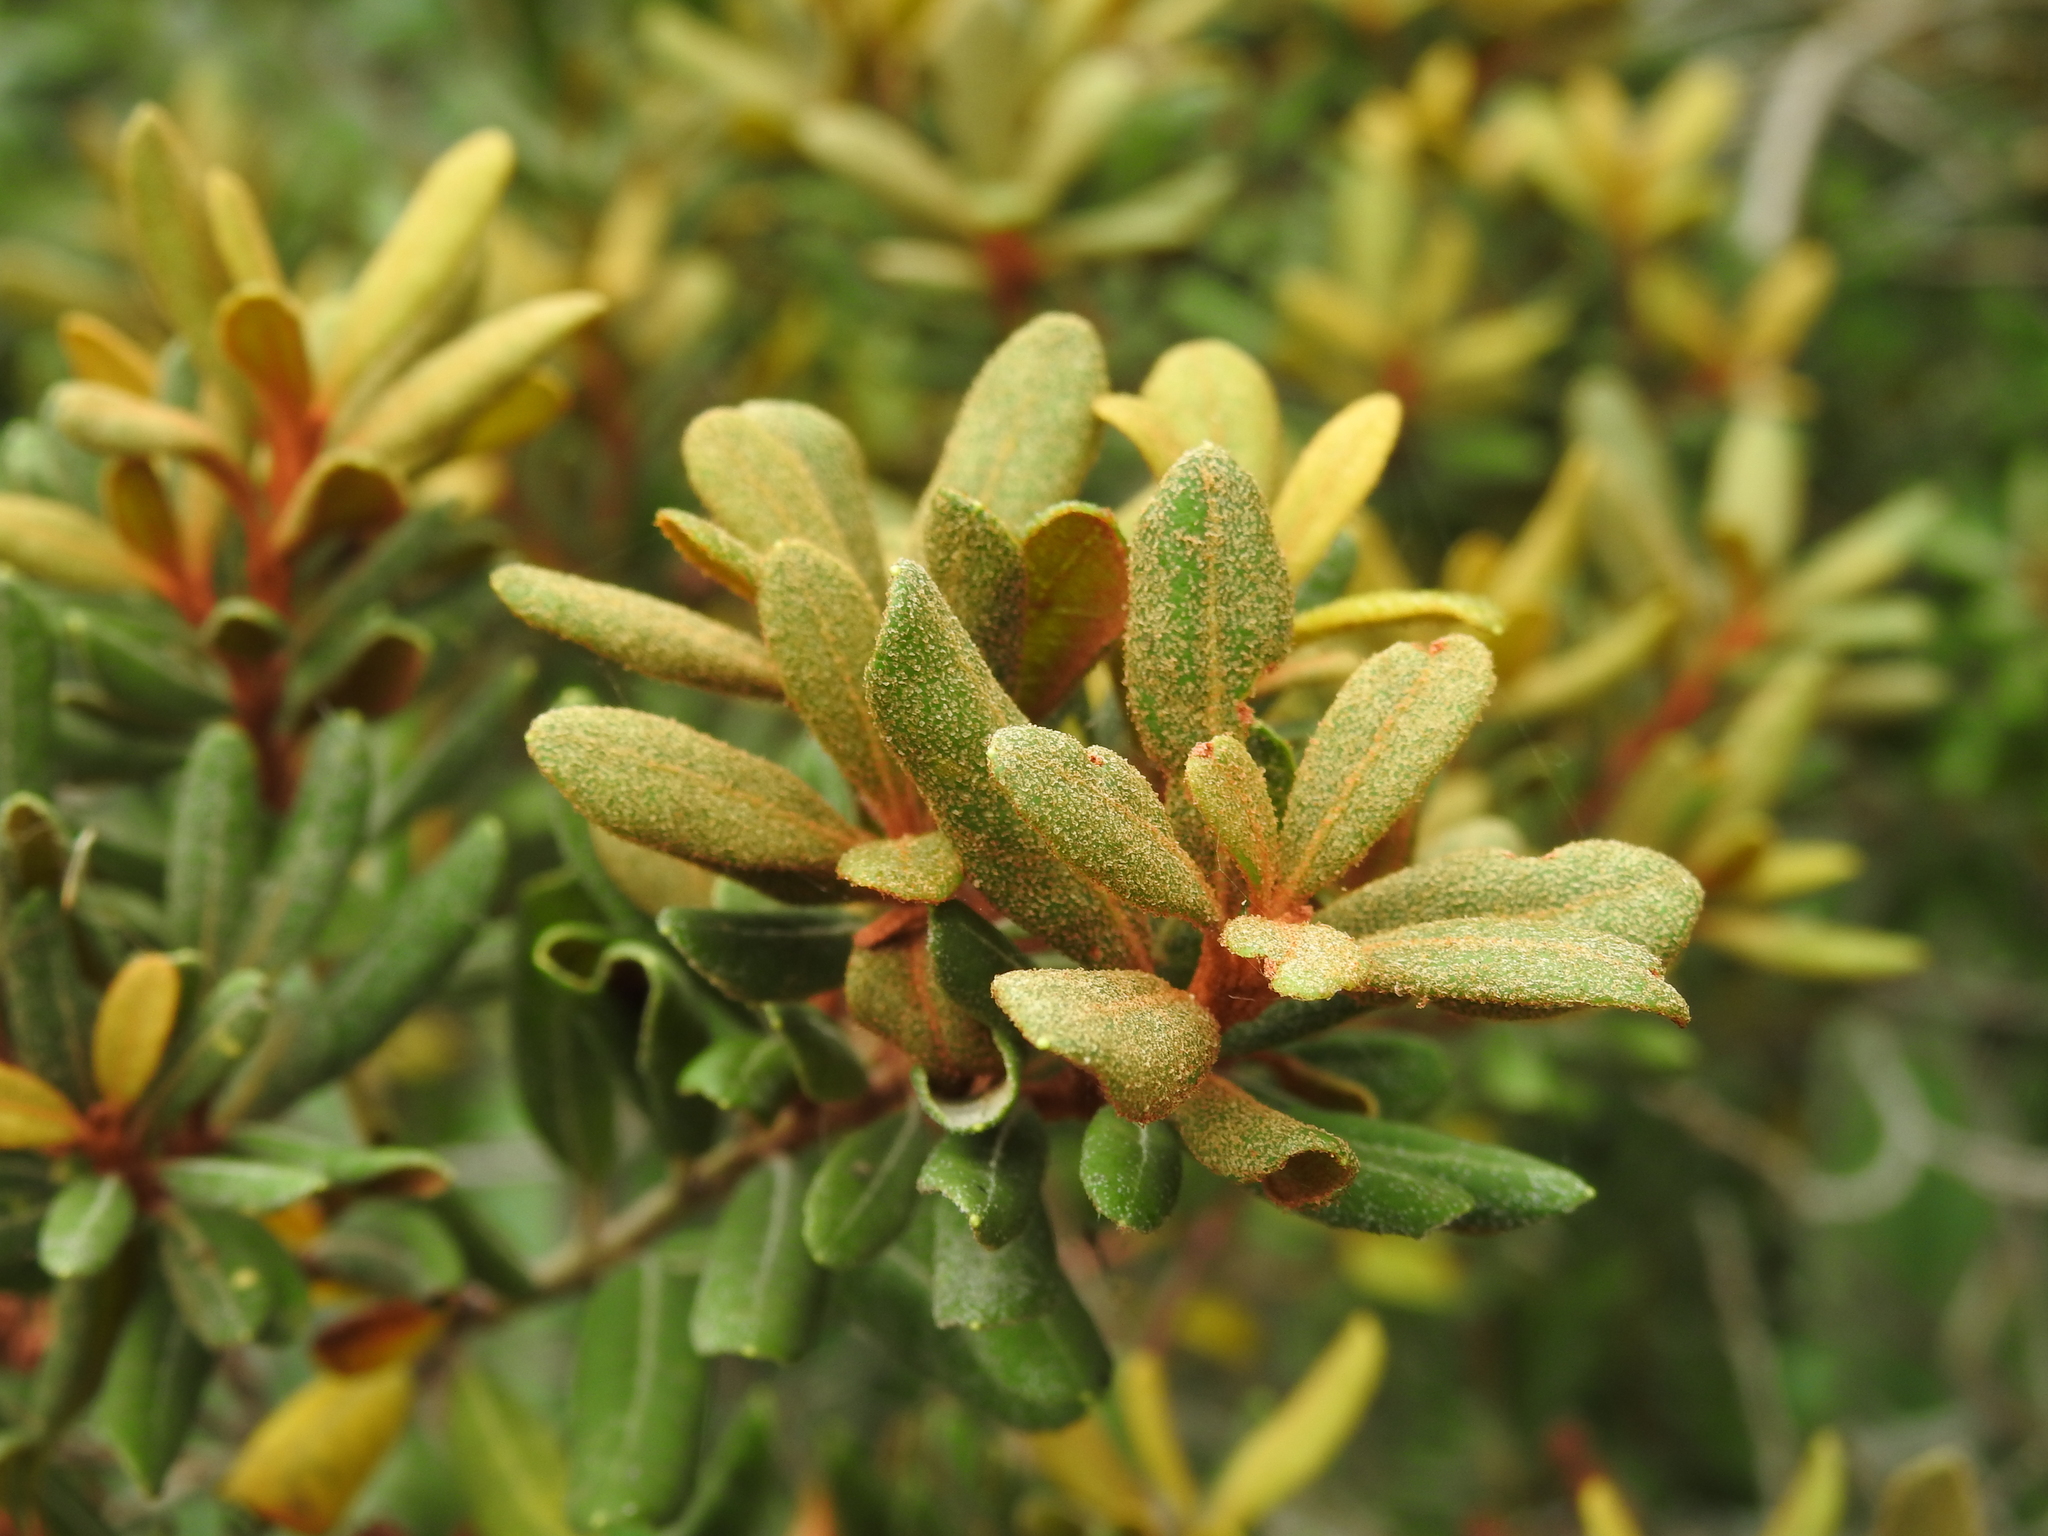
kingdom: Plantae
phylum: Tracheophyta
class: Magnoliopsida
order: Ericales
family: Ericaceae
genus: Lyonia
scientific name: Lyonia ferruginea
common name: Rusty lyonia
